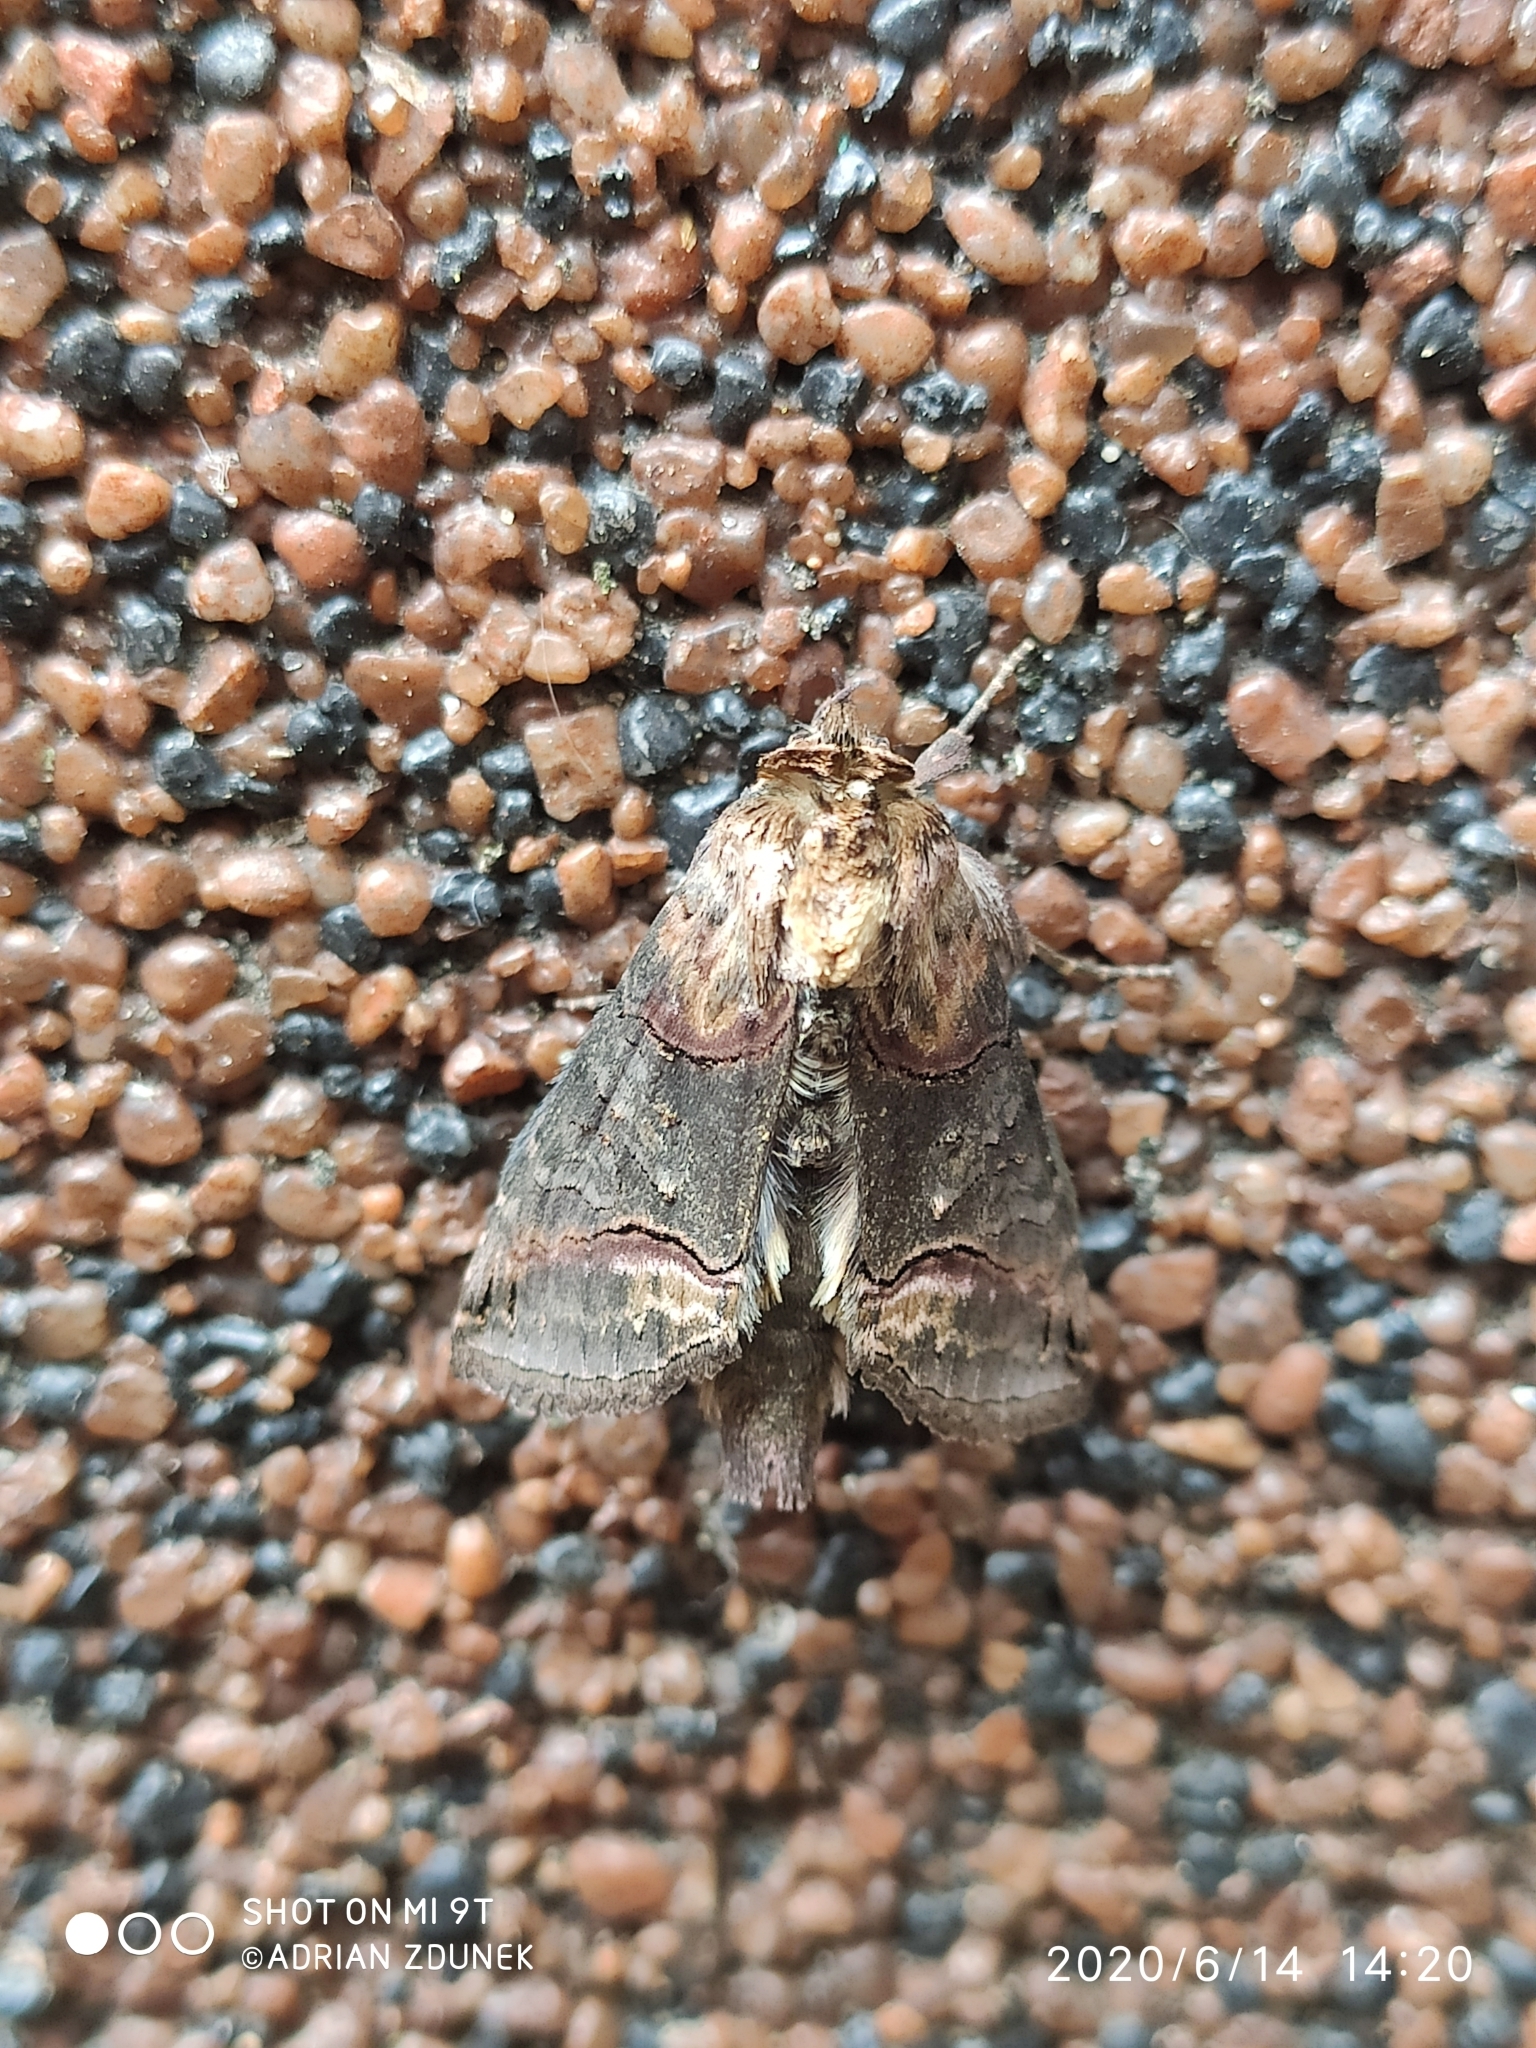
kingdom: Animalia
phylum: Arthropoda
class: Insecta
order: Lepidoptera
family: Noctuidae
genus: Abrostola
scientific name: Abrostola triplasia
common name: Dark spectacle
